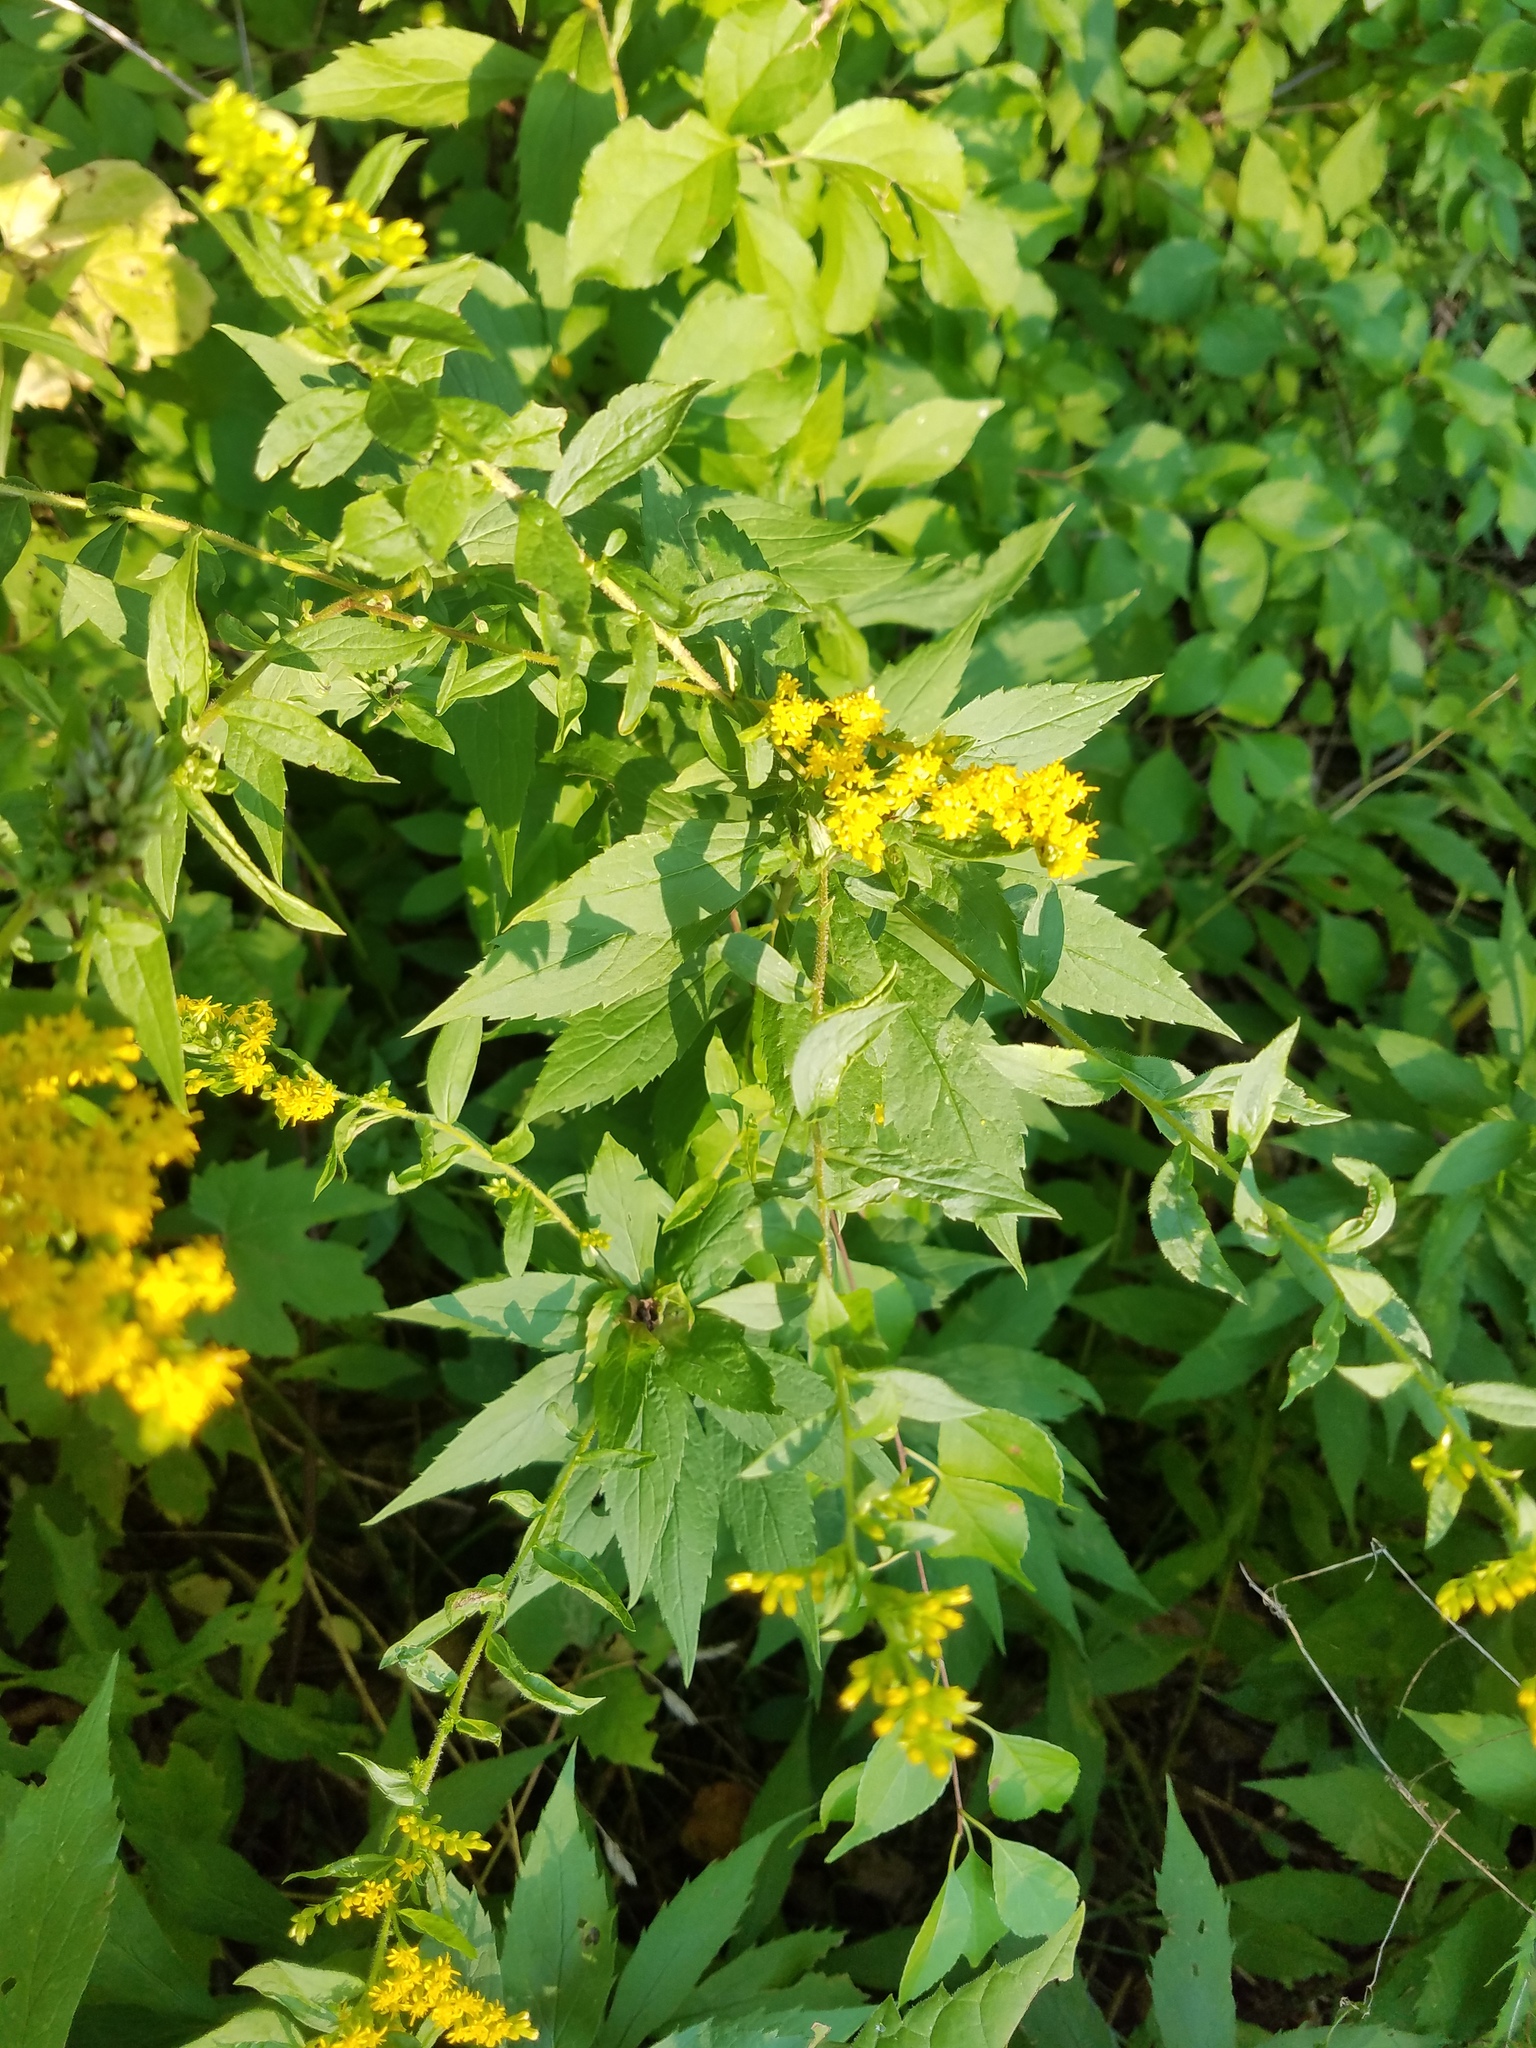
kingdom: Plantae
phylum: Tracheophyta
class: Magnoliopsida
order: Asterales
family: Asteraceae
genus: Solidago
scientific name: Solidago rugosa
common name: Rough-stemmed goldenrod
